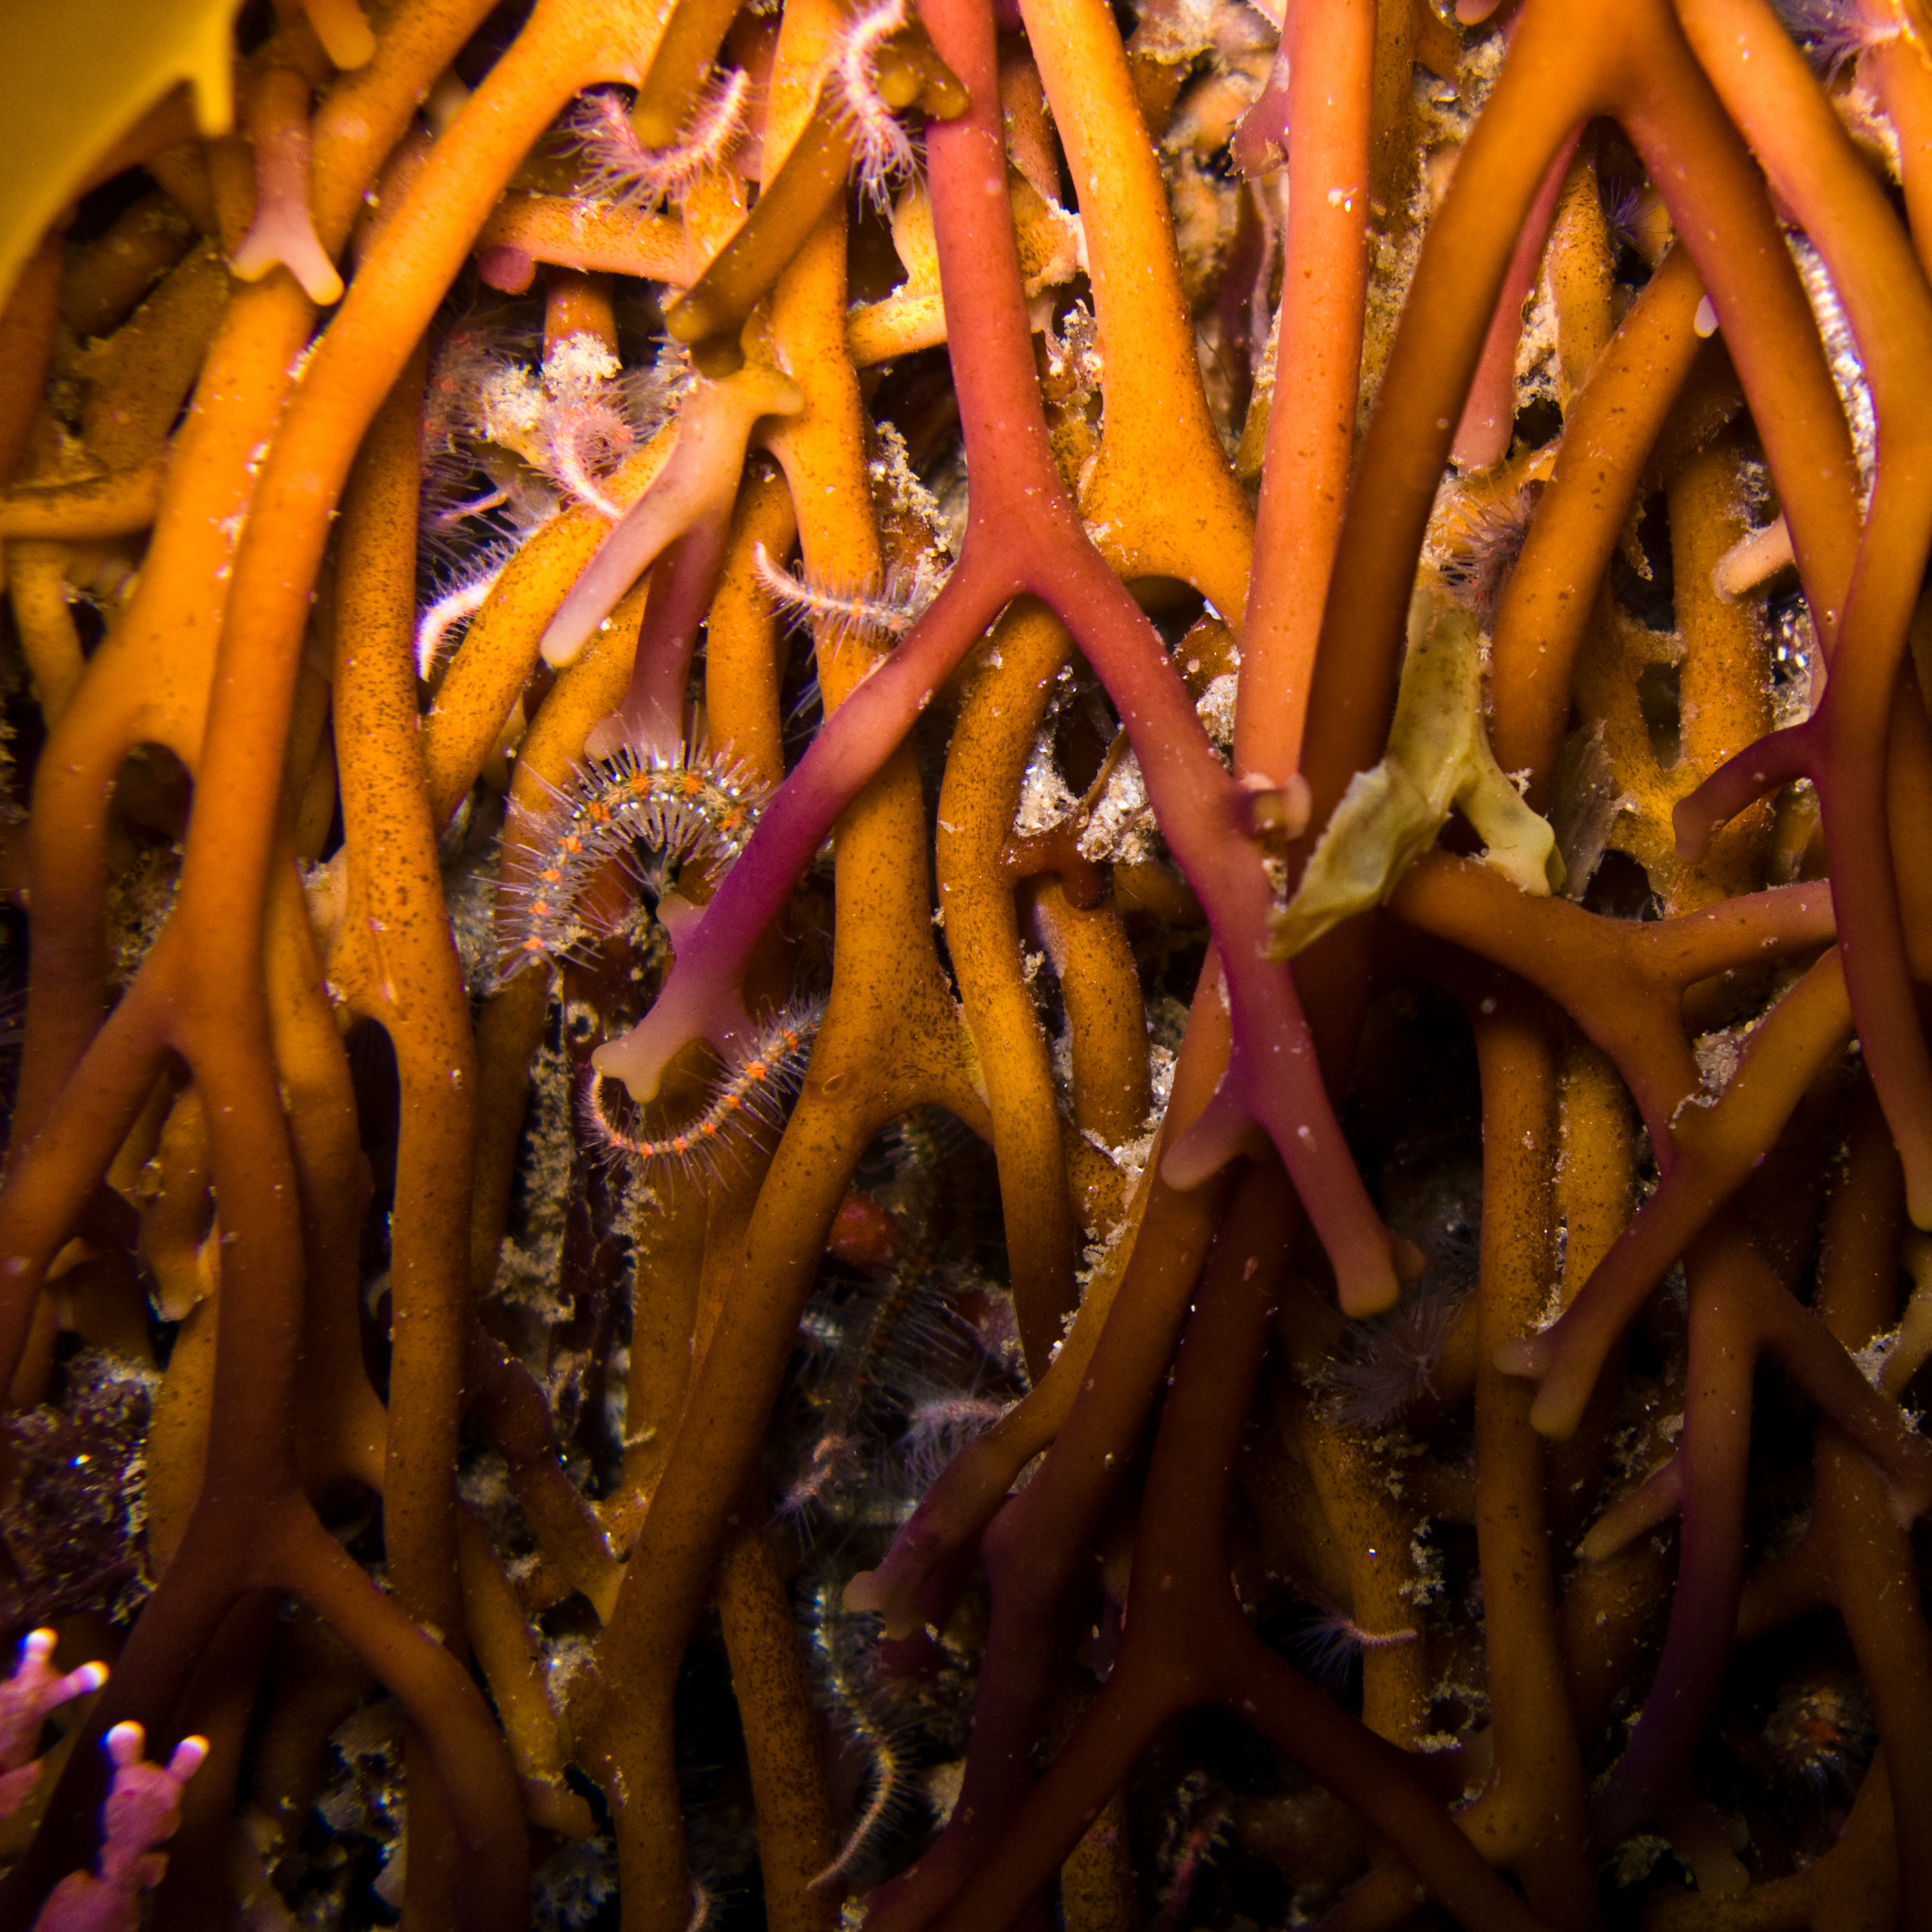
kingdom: Animalia
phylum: Echinodermata
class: Ophiuroidea
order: Amphilepidida
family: Ophiotrichidae
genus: Ophiothrix
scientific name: Ophiothrix spiculata
